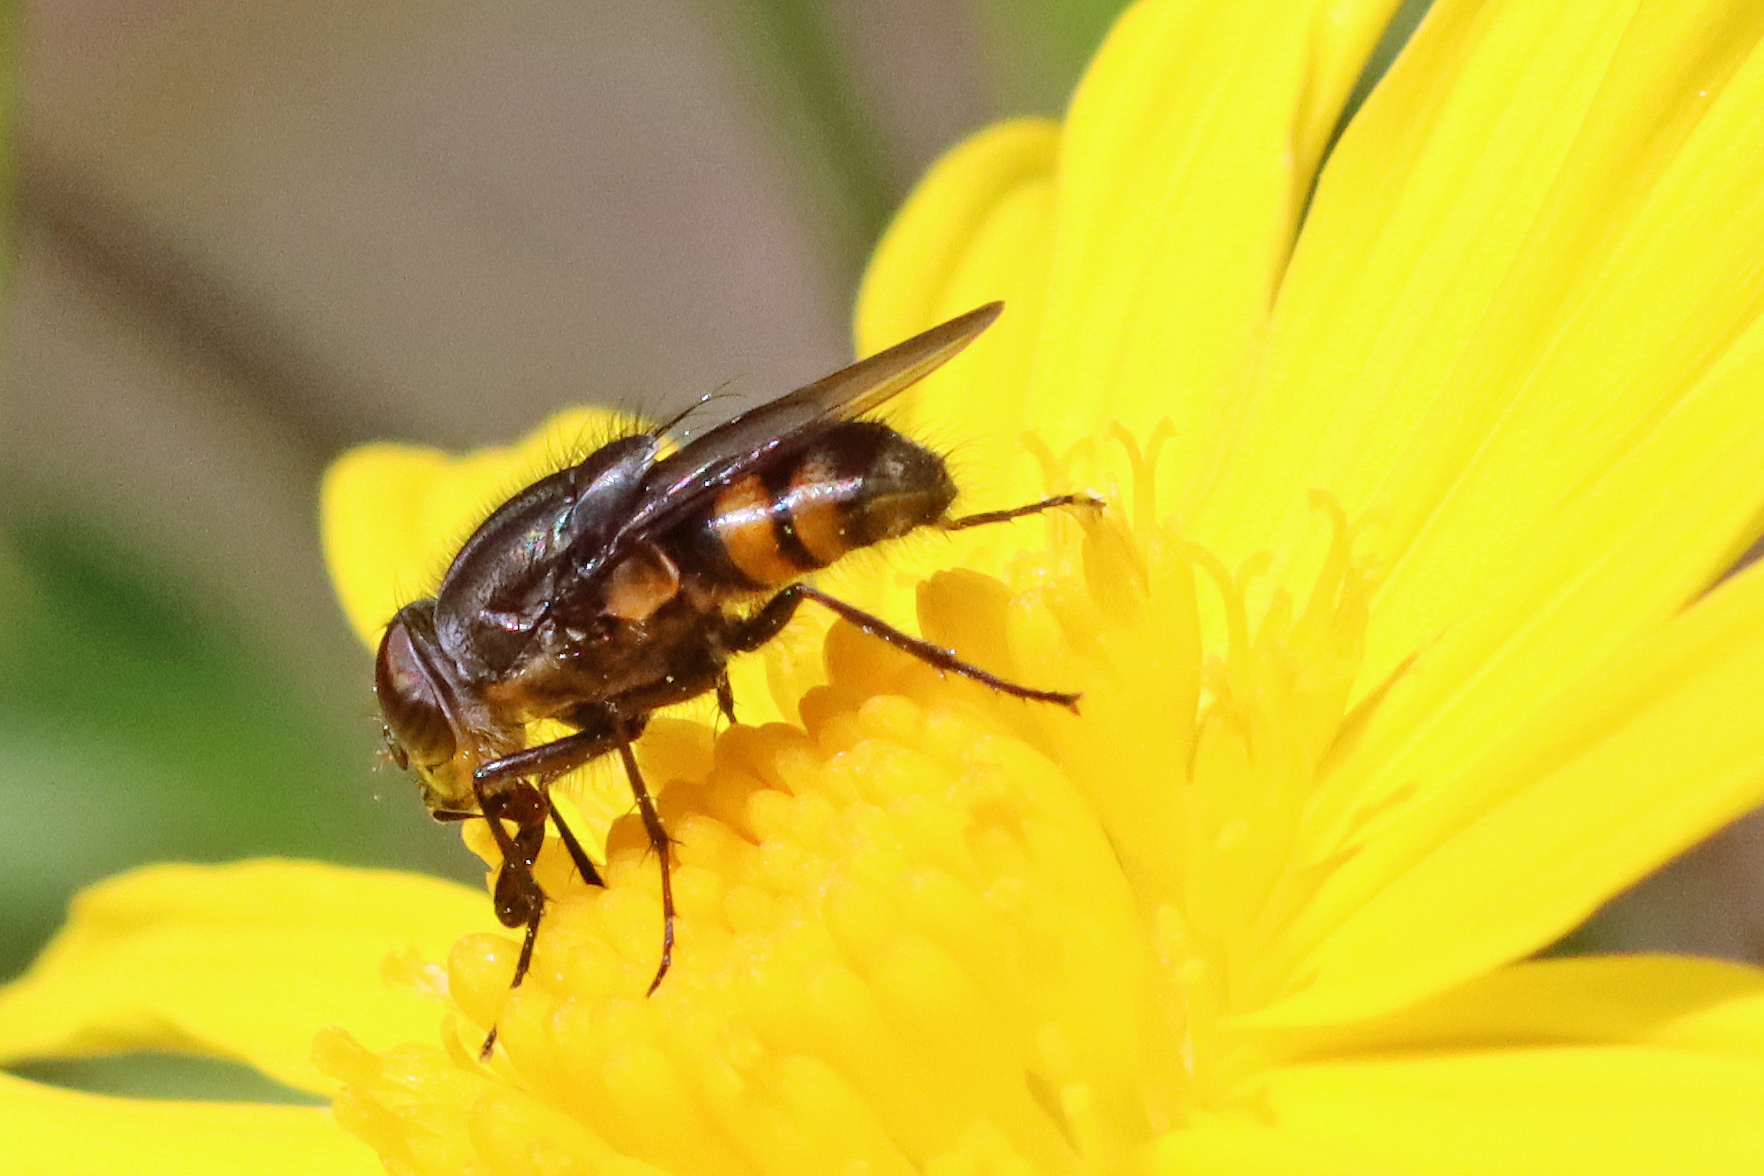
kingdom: Animalia
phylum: Arthropoda
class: Insecta
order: Diptera
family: Calliphoridae
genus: Stomorhina
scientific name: Stomorhina lunata
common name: Locust blowfly
